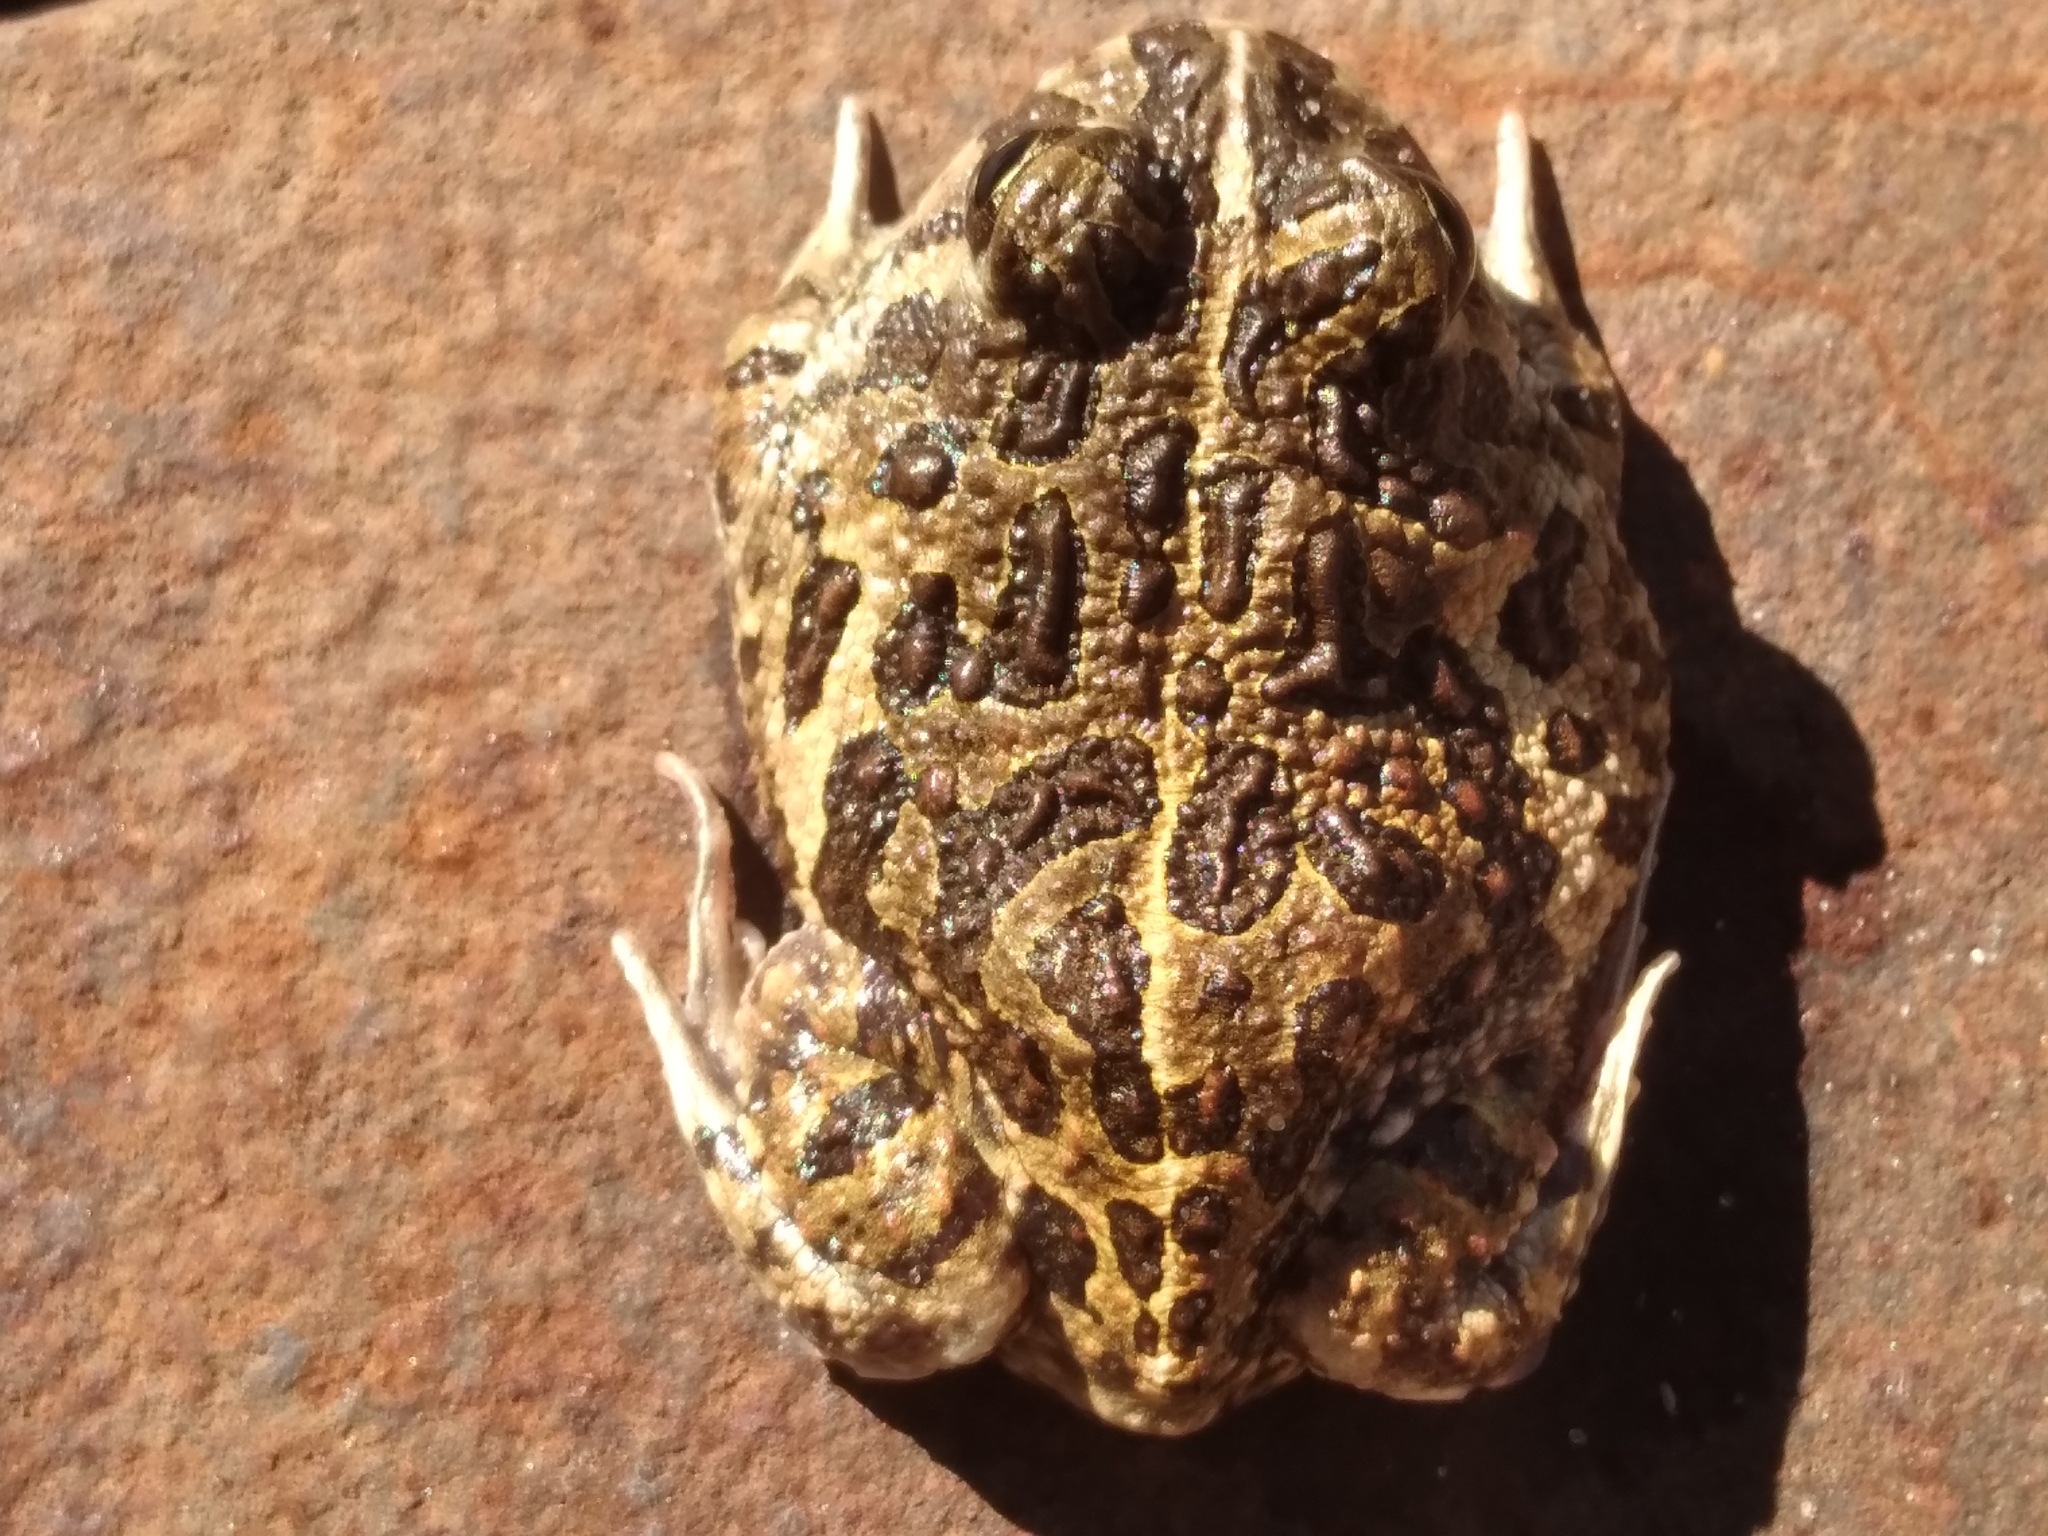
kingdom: Animalia
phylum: Chordata
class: Amphibia
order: Anura
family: Odontophrynidae
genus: Odontophrynus
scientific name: Odontophrynus
